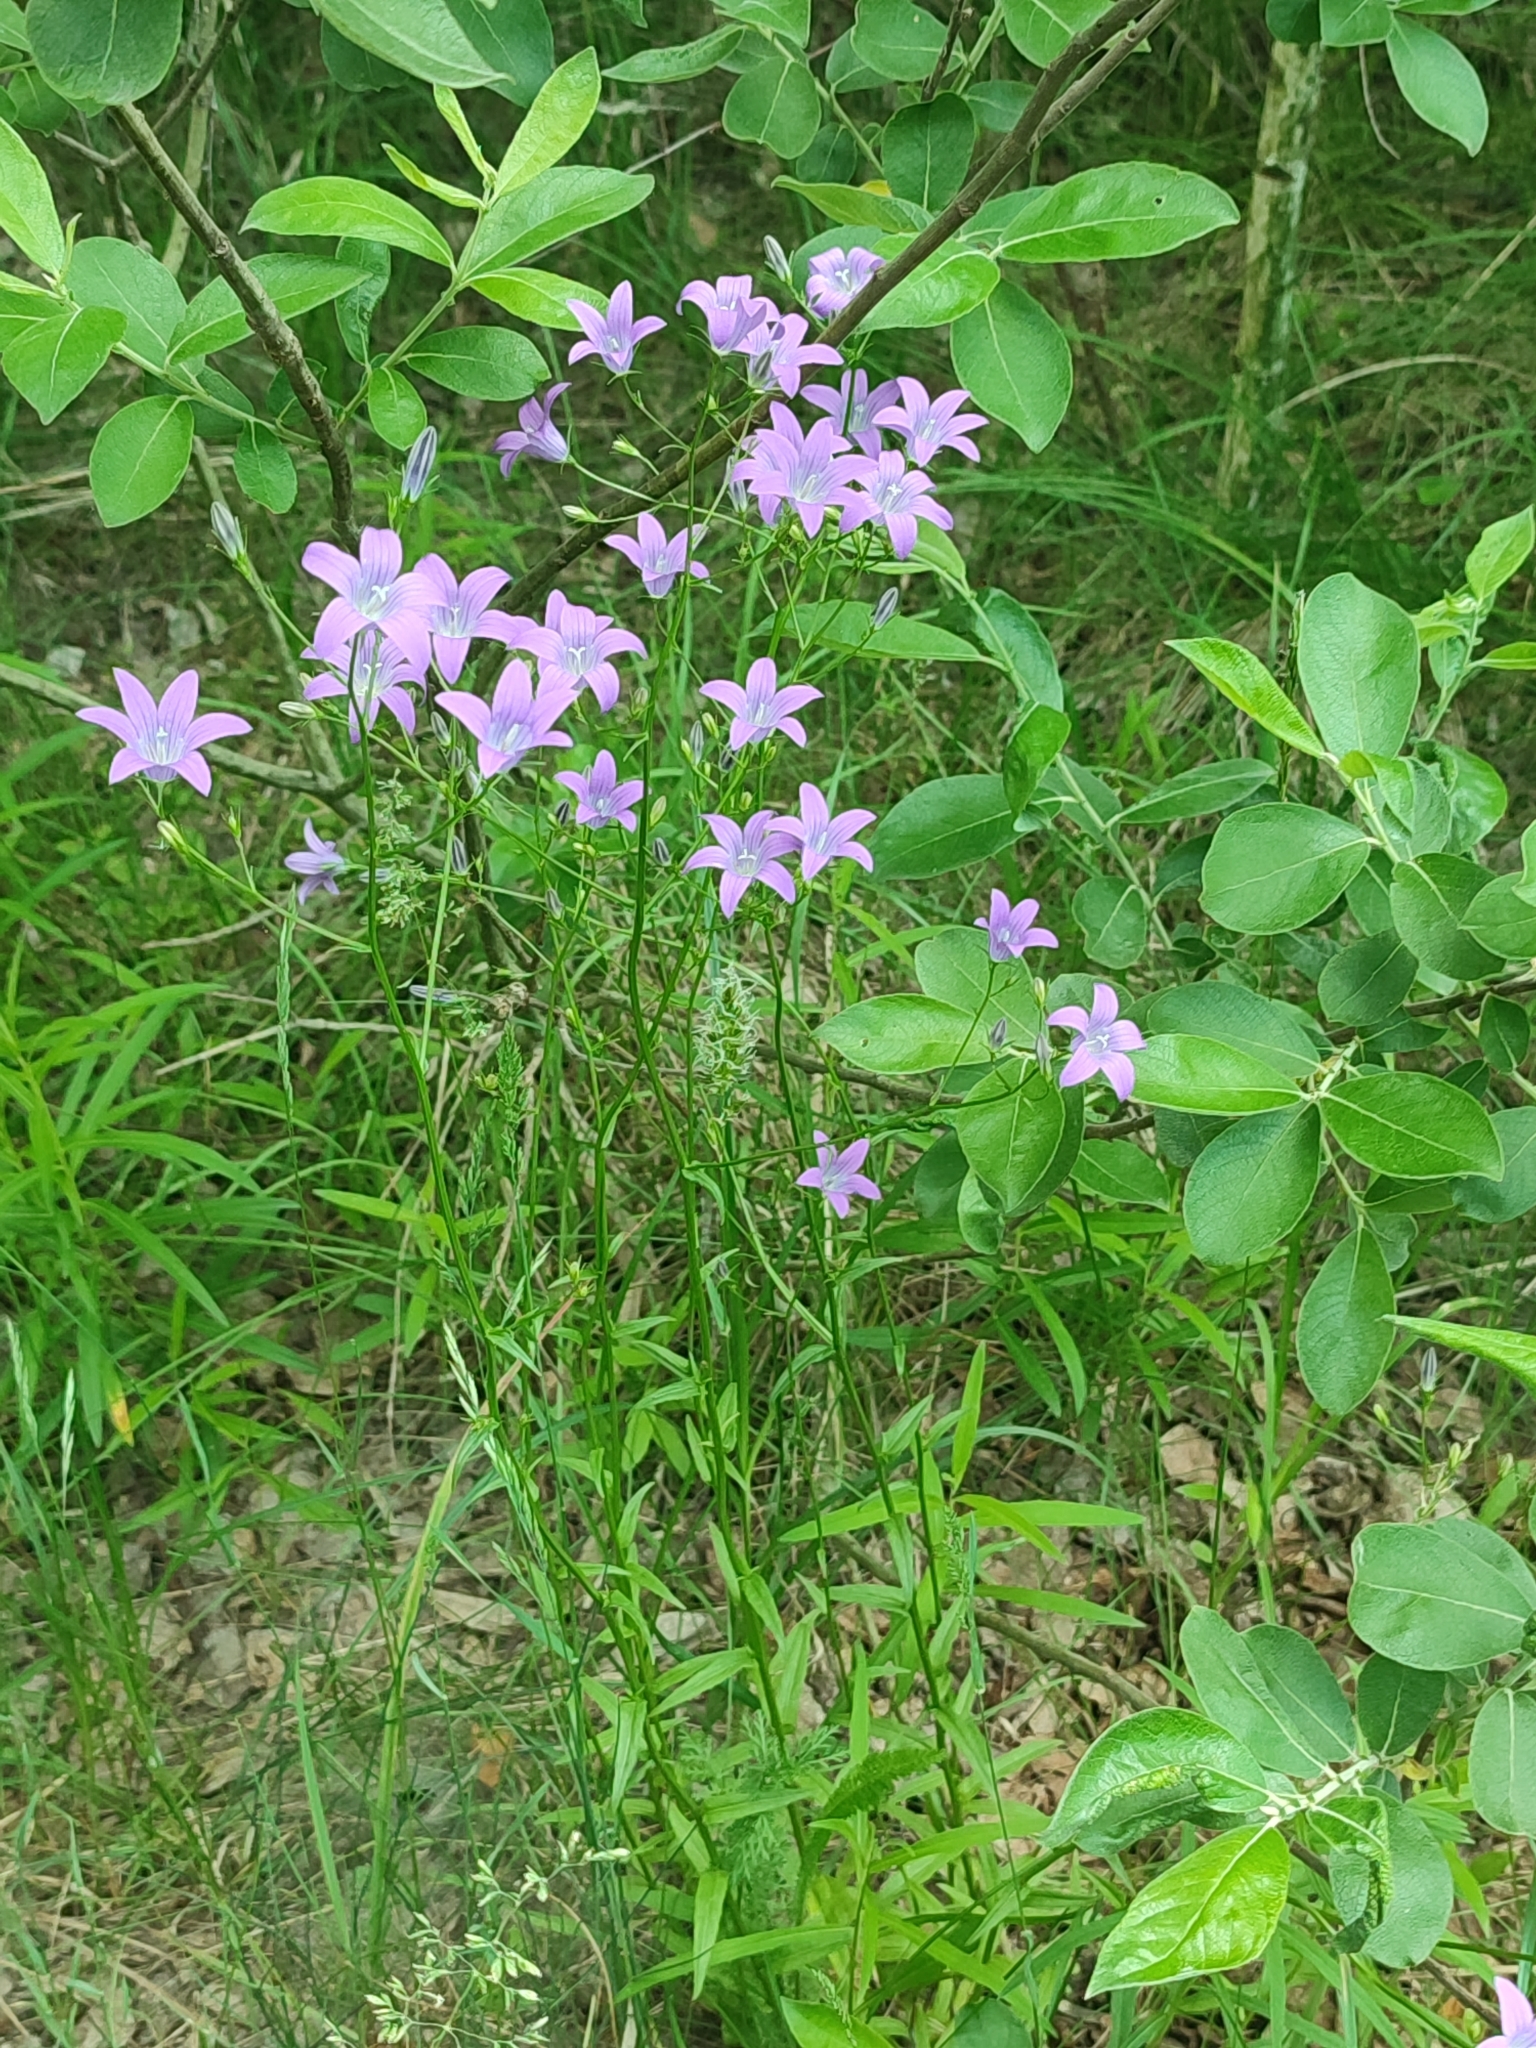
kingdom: Plantae
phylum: Tracheophyta
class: Magnoliopsida
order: Asterales
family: Campanulaceae
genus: Campanula
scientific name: Campanula patula
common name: Spreading bellflower
